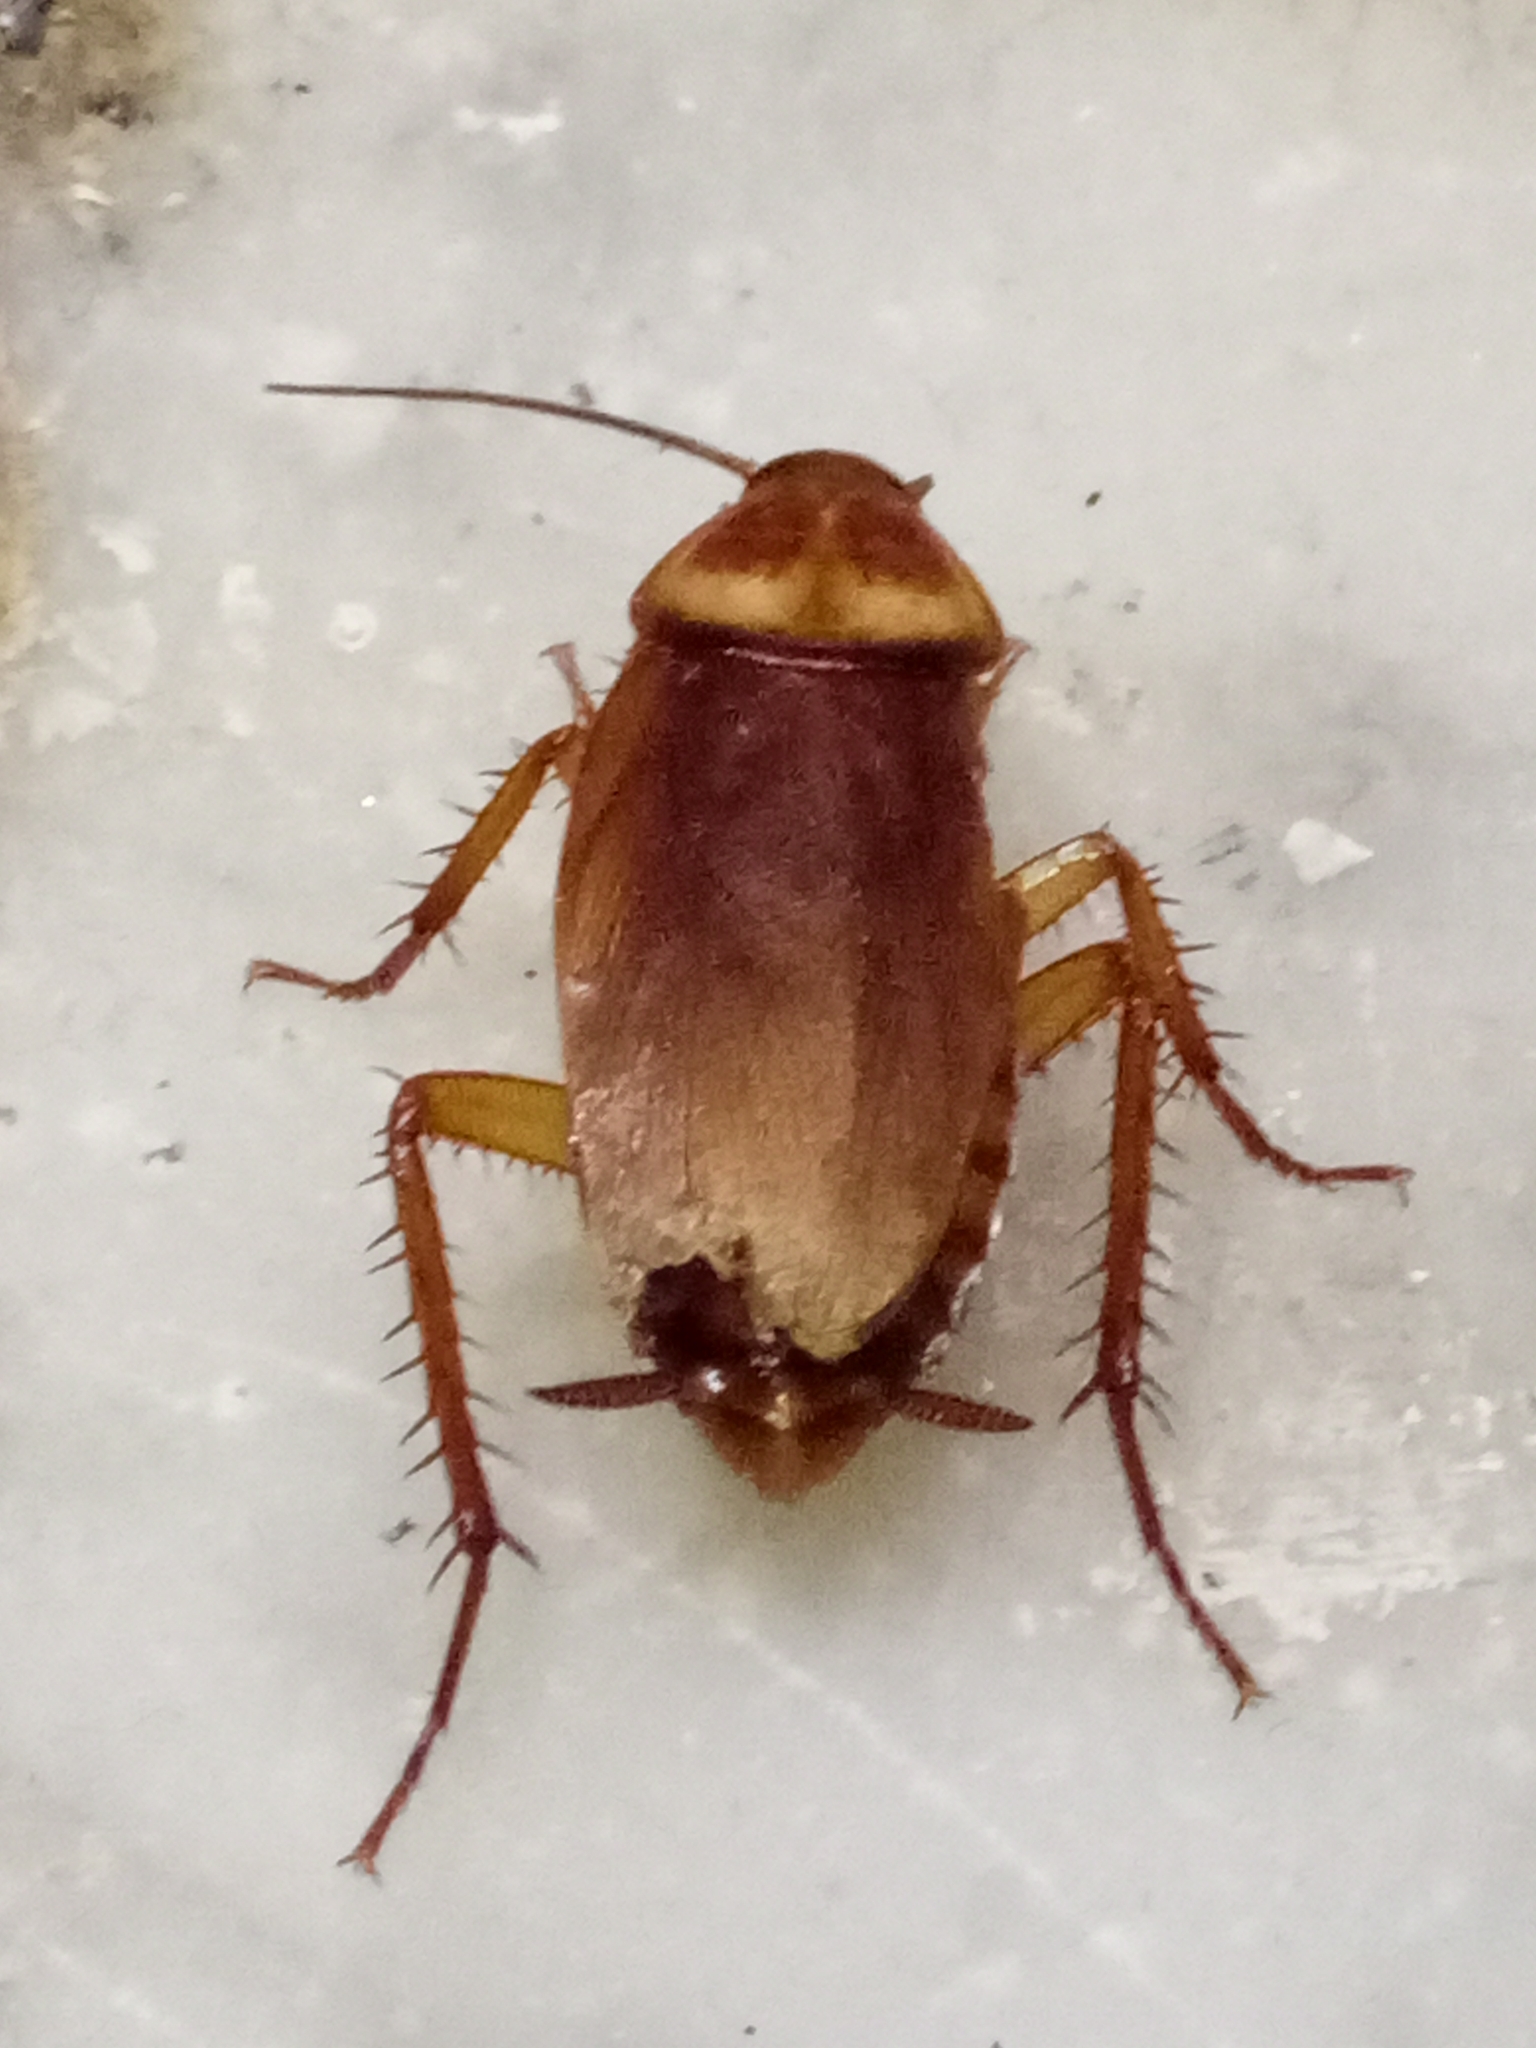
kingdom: Animalia
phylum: Arthropoda
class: Insecta
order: Blattodea
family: Blattidae
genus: Periplaneta
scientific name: Periplaneta americana
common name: American cockroach
